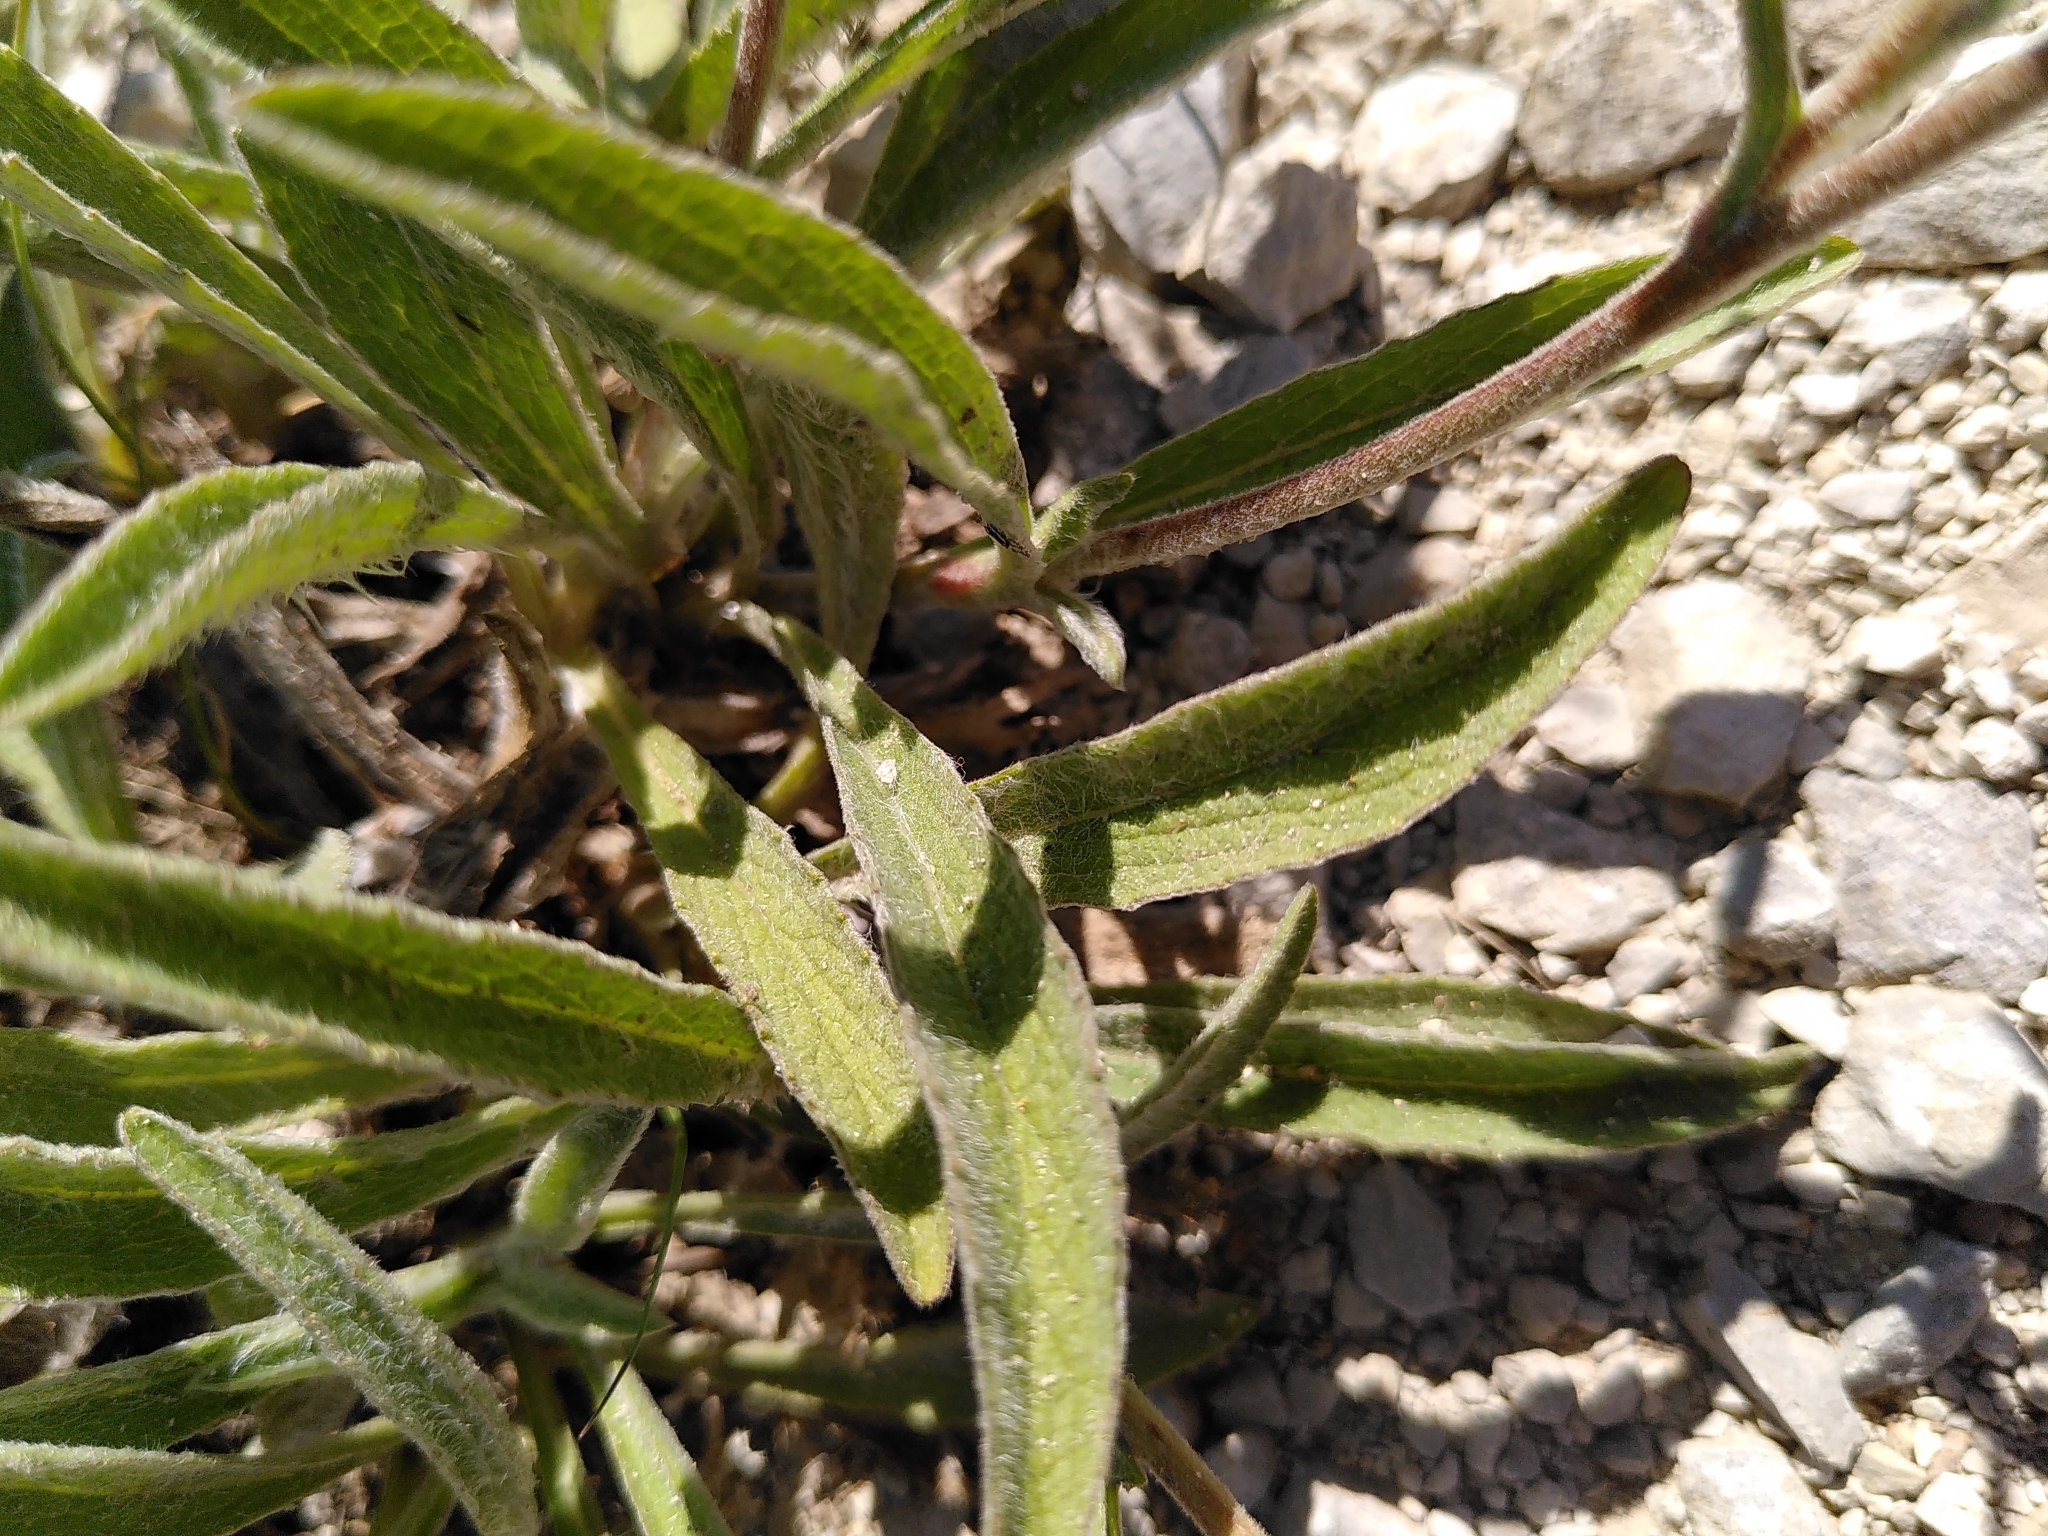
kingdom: Plantae
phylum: Tracheophyta
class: Magnoliopsida
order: Asterales
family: Asteraceae
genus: Pentanema
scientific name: Pentanema montanum
